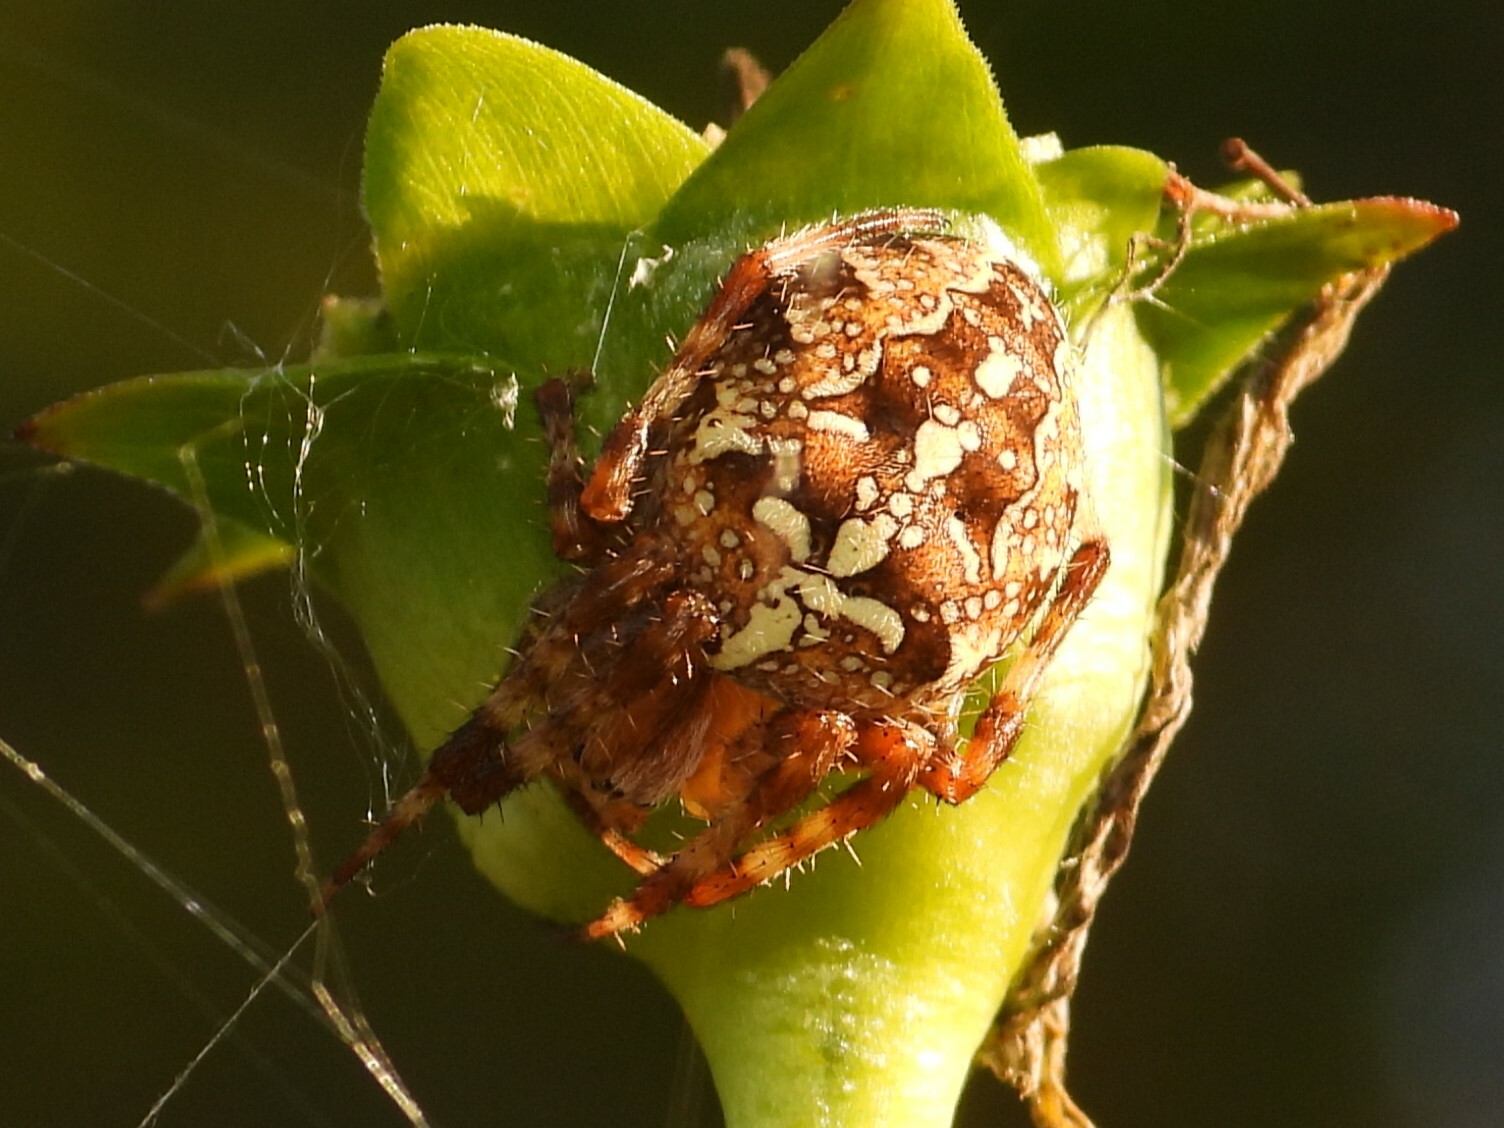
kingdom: Animalia
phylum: Arthropoda
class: Arachnida
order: Araneae
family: Araneidae
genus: Araneus
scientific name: Araneus diadematus
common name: Cross orbweaver
